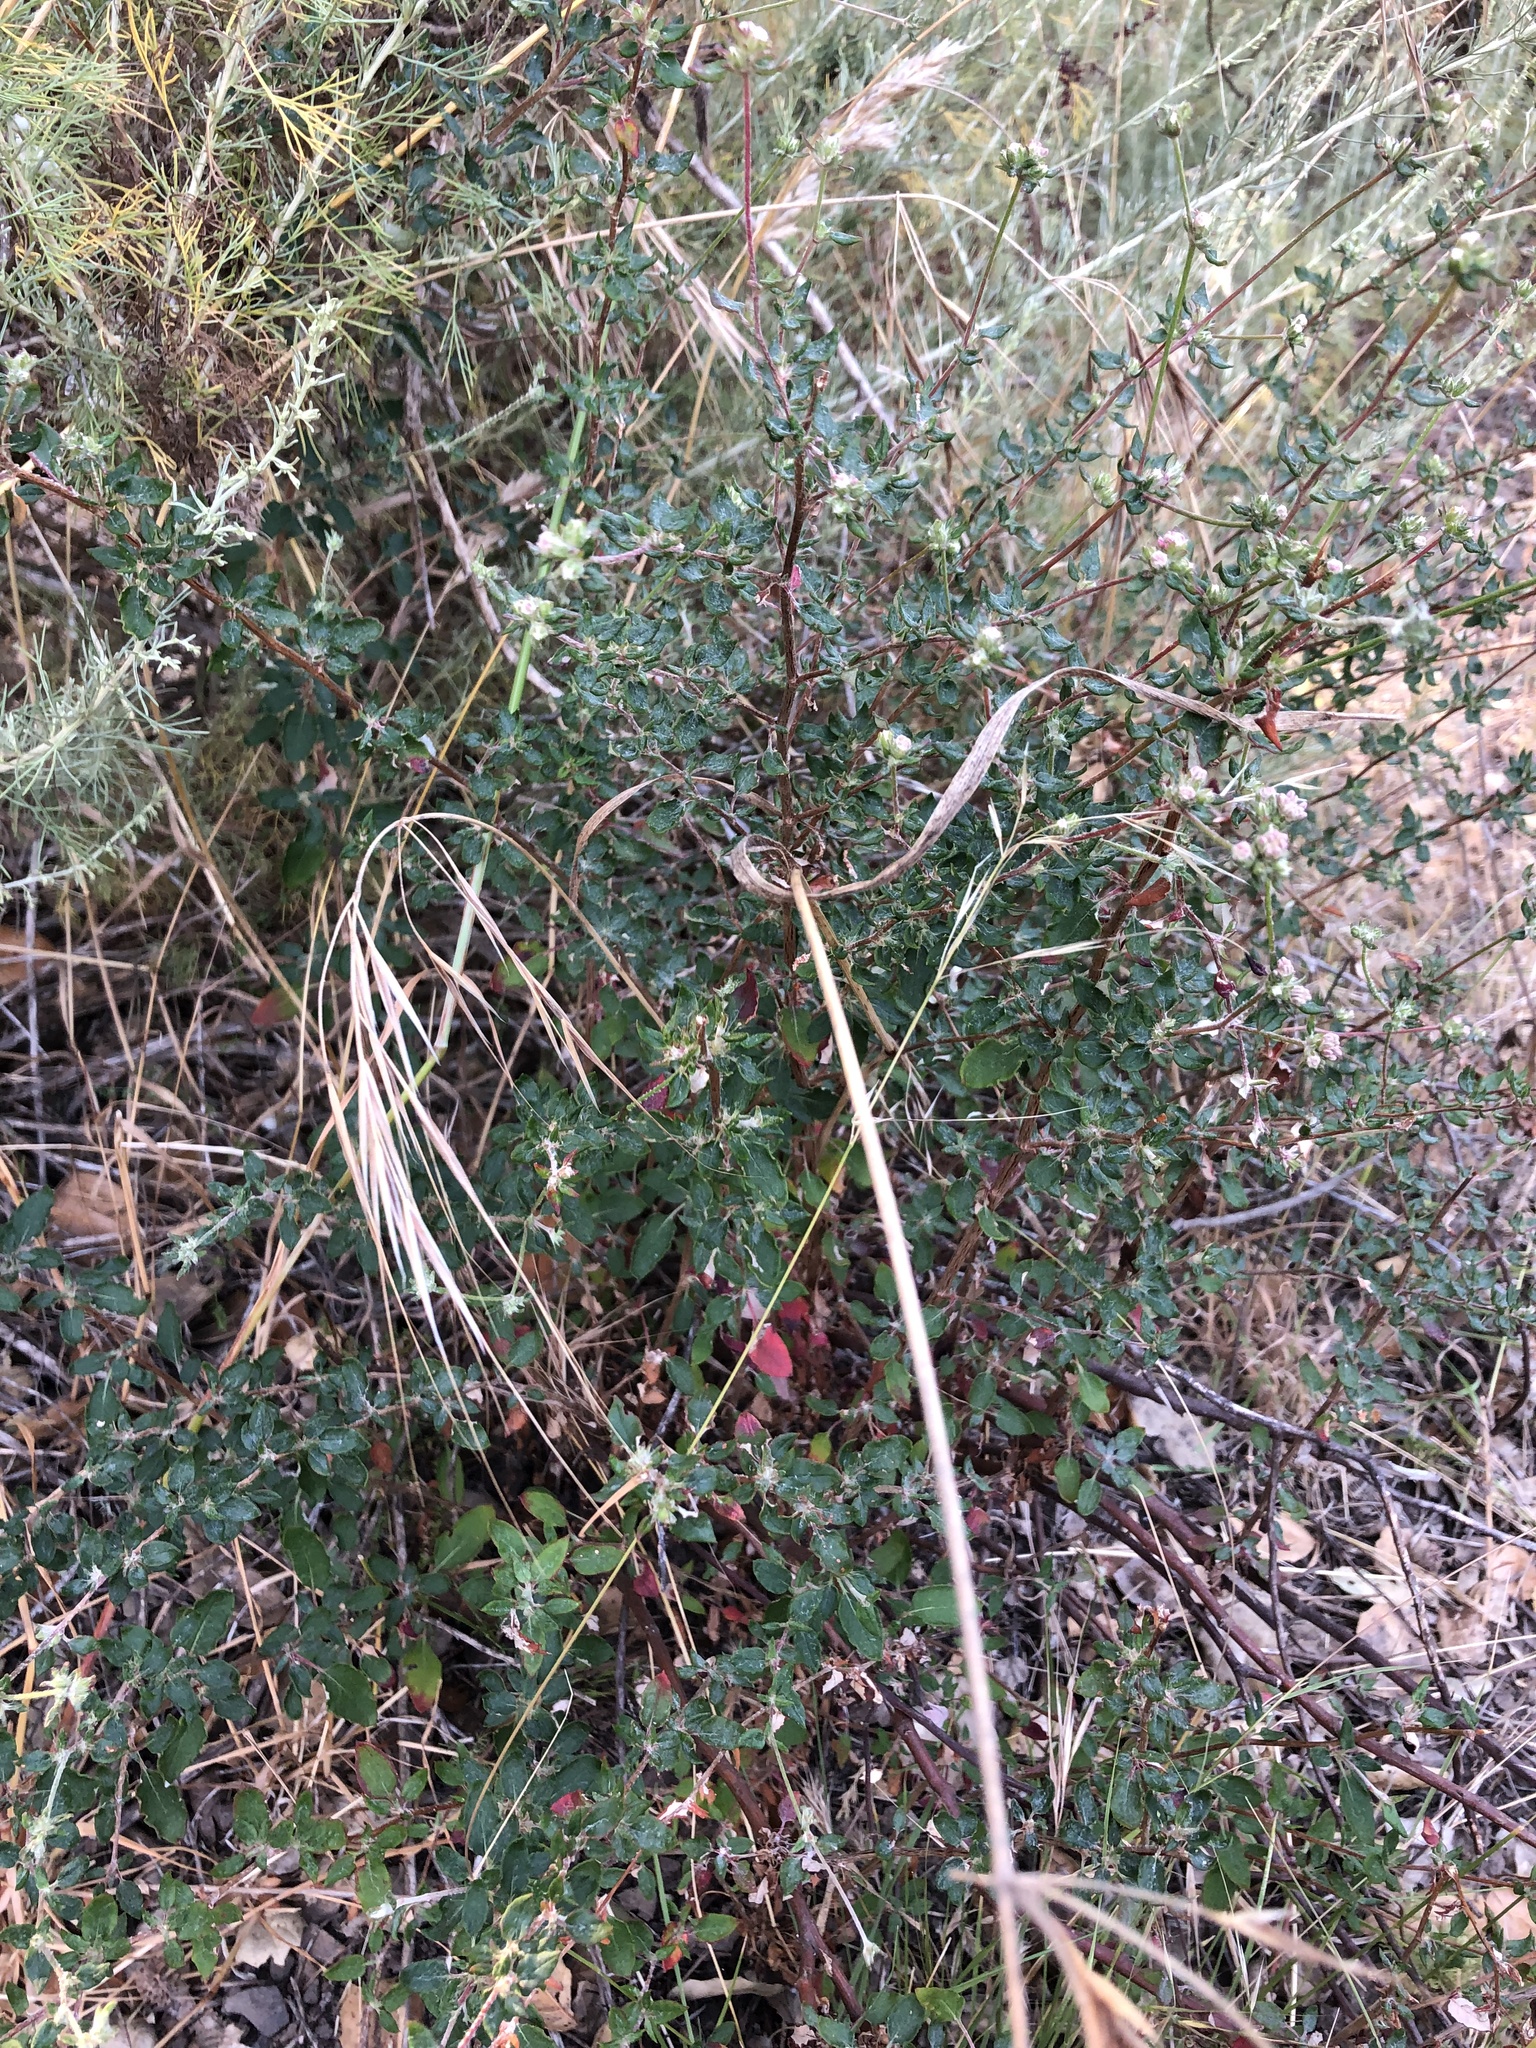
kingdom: Plantae
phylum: Tracheophyta
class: Magnoliopsida
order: Caryophyllales
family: Polygonaceae
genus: Eriogonum
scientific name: Eriogonum parvifolium
